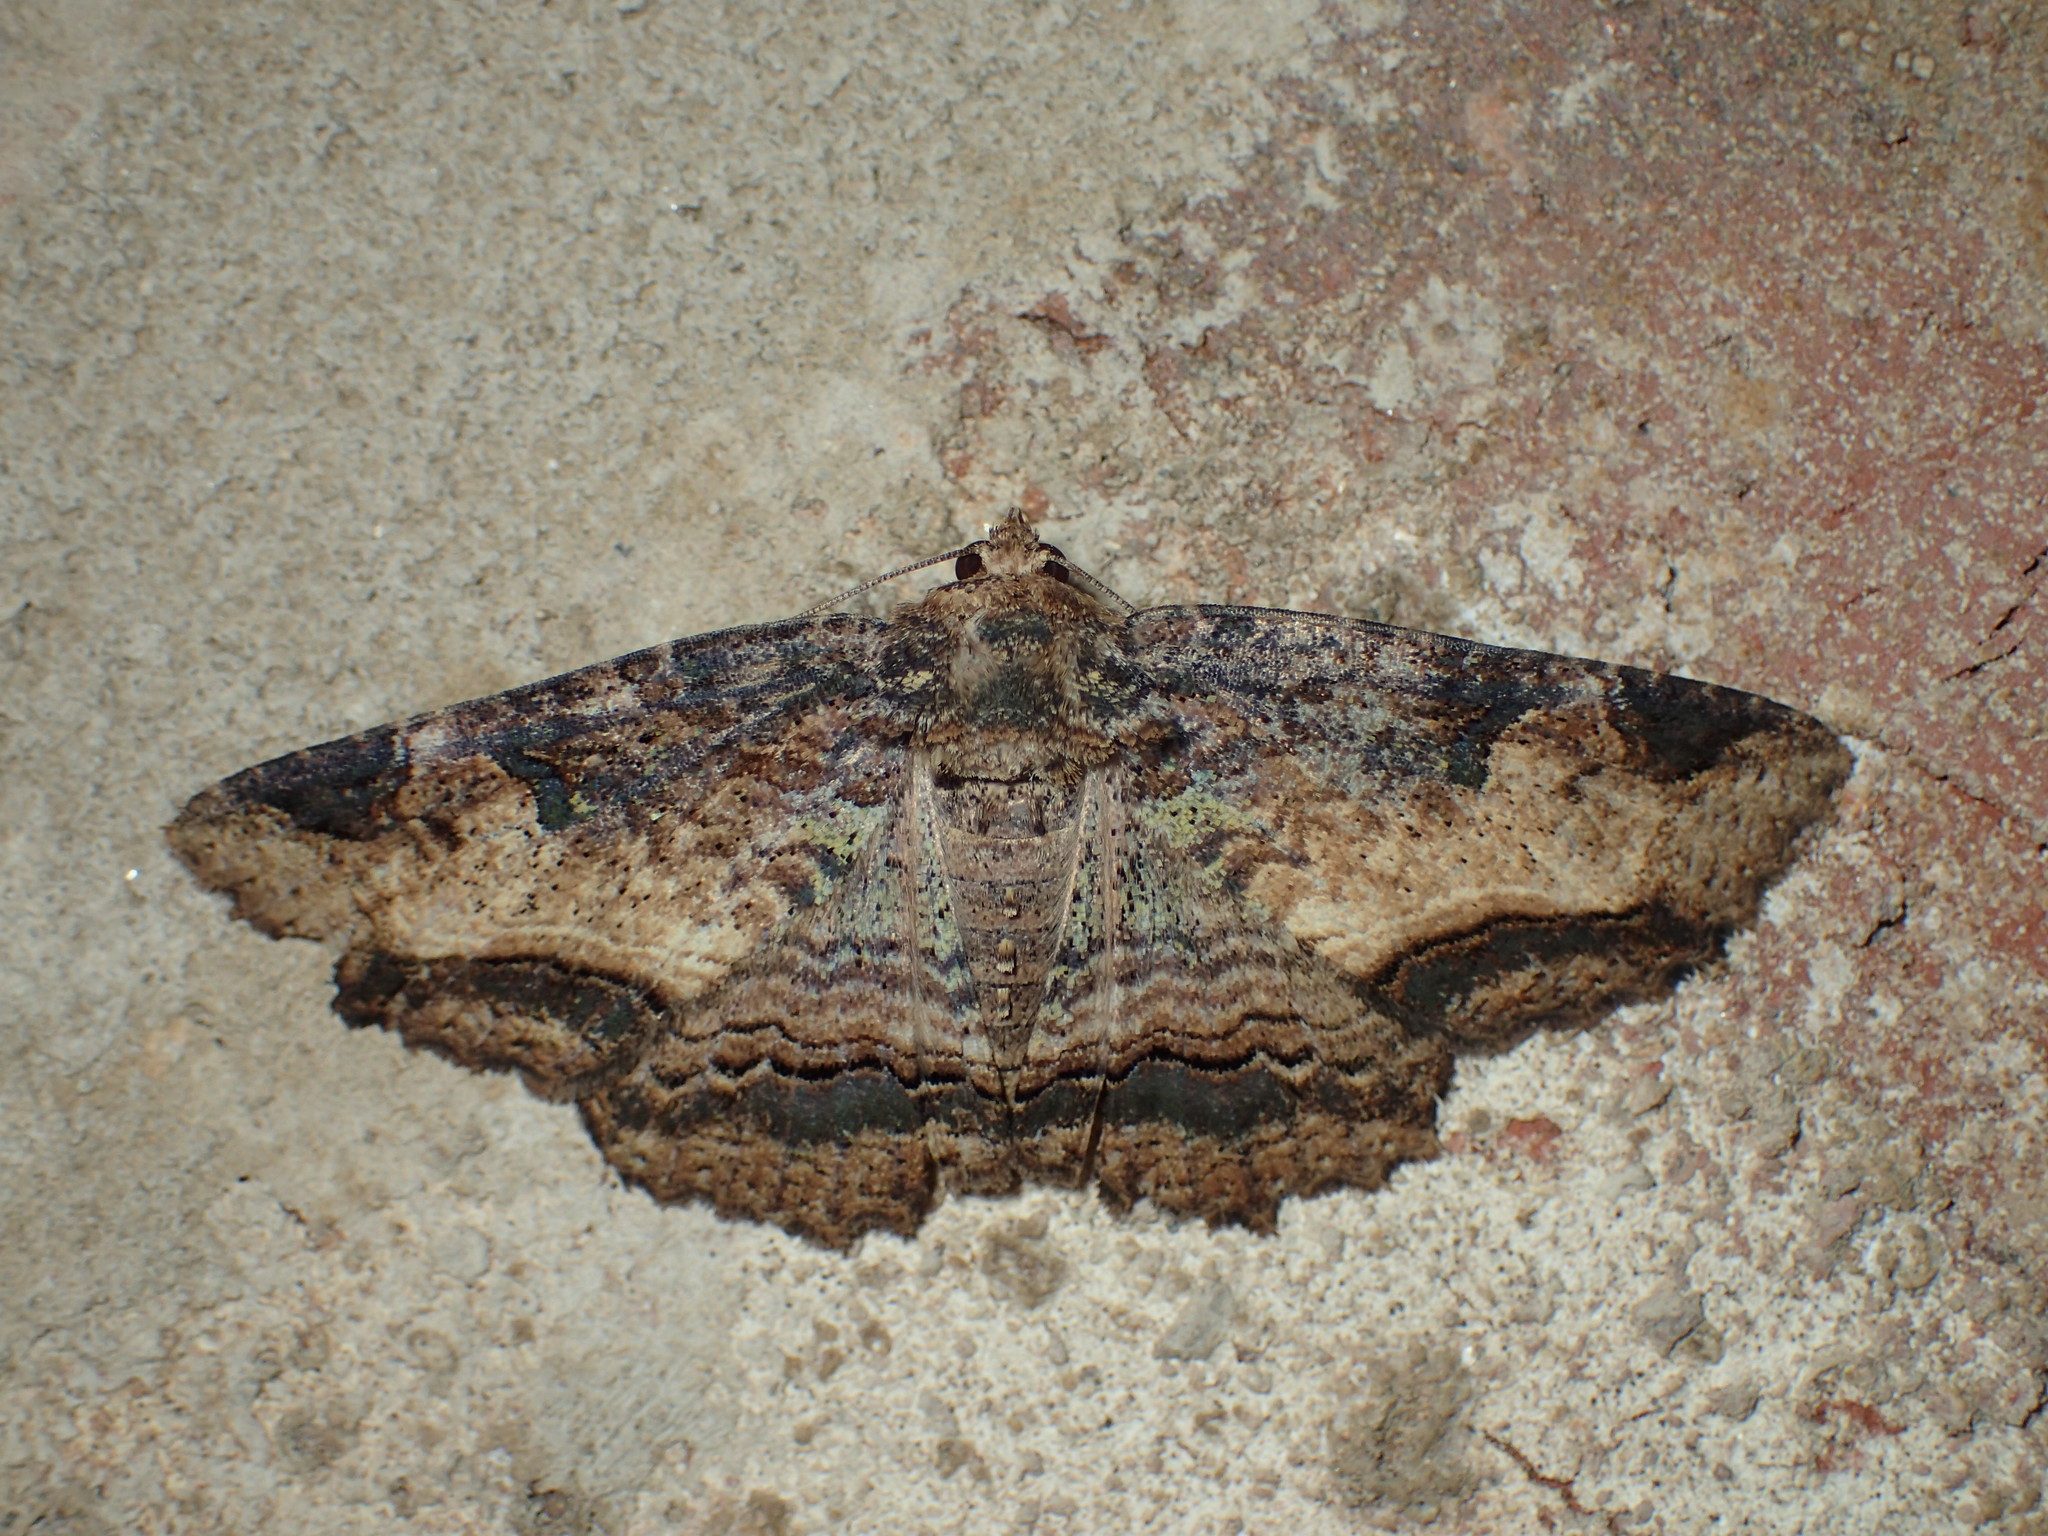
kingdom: Animalia
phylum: Arthropoda
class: Insecta
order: Lepidoptera
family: Erebidae
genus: Zale
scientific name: Zale lunata
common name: Lunate zale moth
